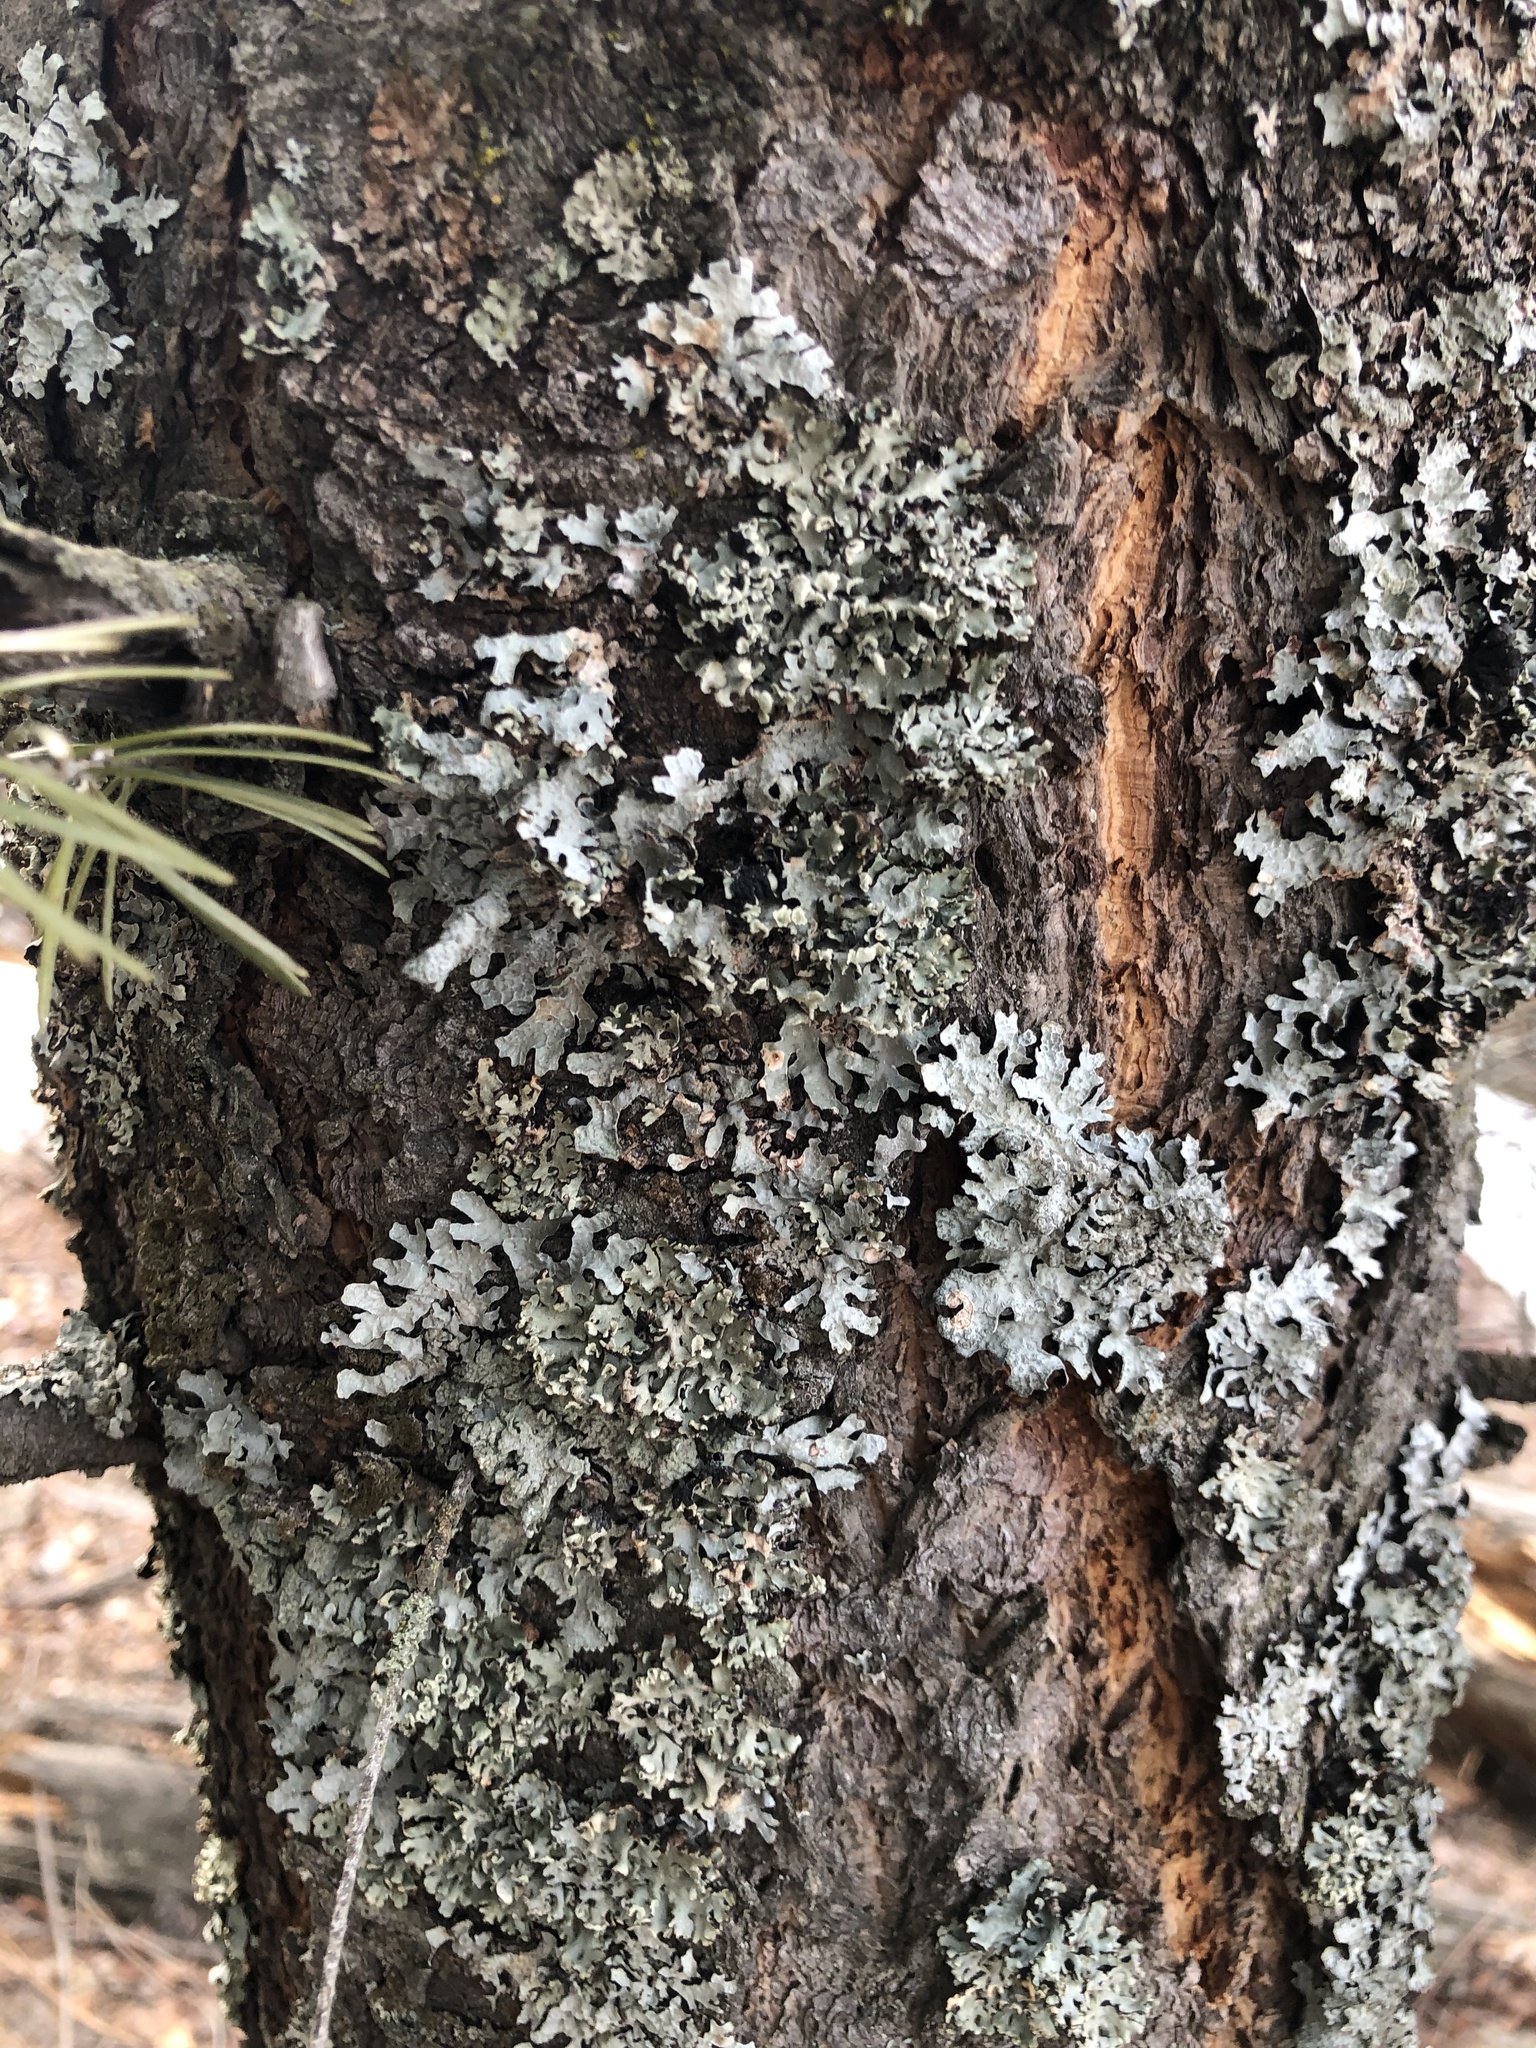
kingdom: Fungi
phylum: Ascomycota
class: Lecanoromycetes
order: Lecanorales
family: Parmeliaceae
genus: Parmelia
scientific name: Parmelia sulcata
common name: Netted shield lichen
